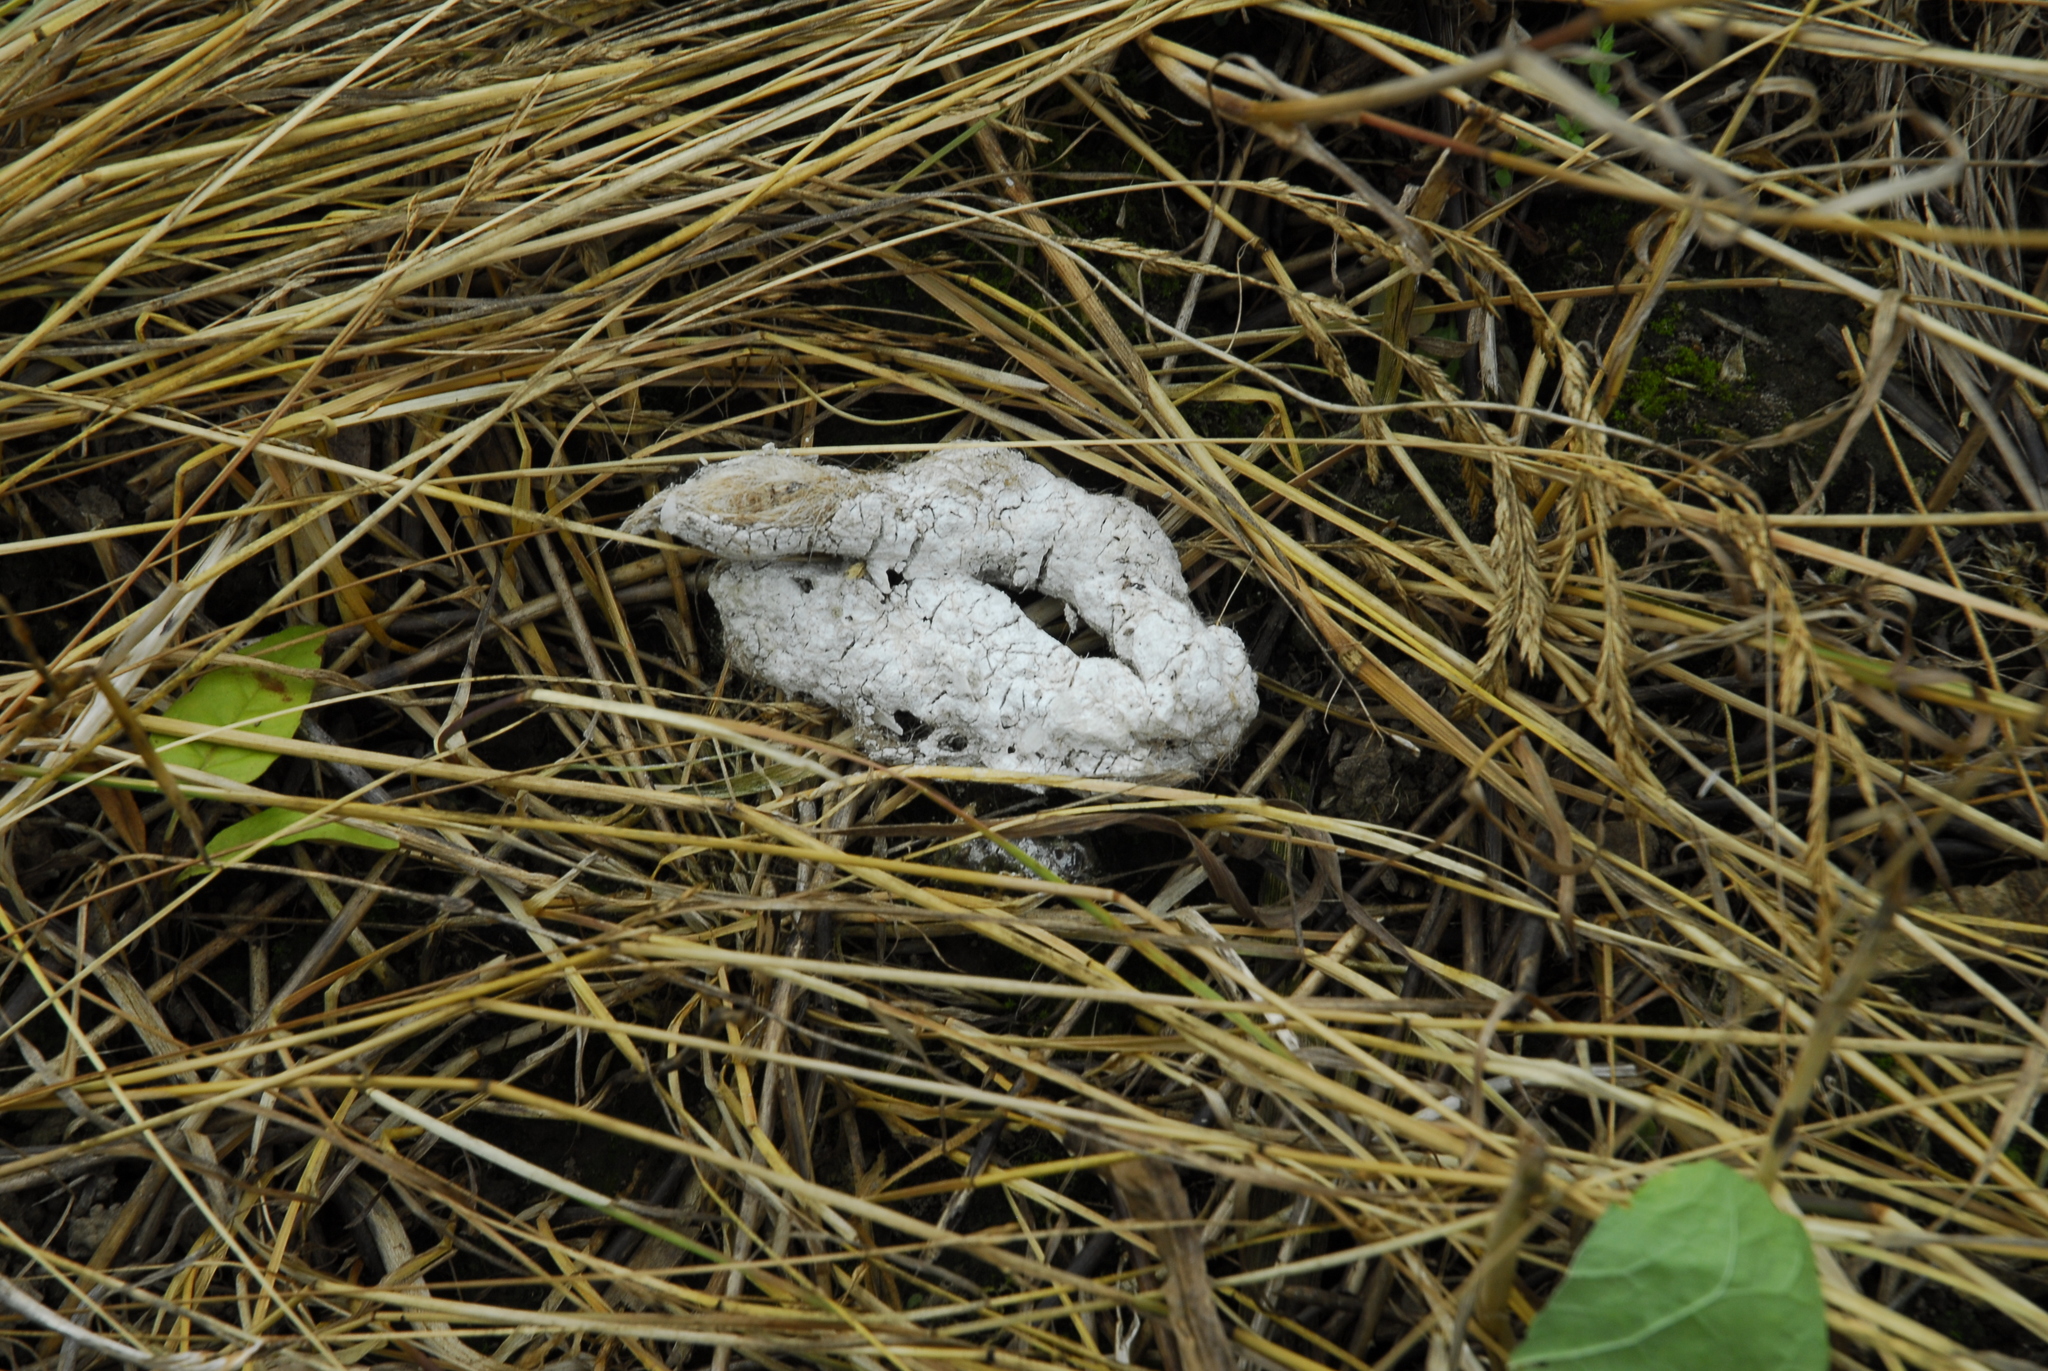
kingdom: Animalia
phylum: Chordata
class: Mammalia
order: Carnivora
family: Canidae
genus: Canis
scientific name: Canis latrans
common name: Coyote
